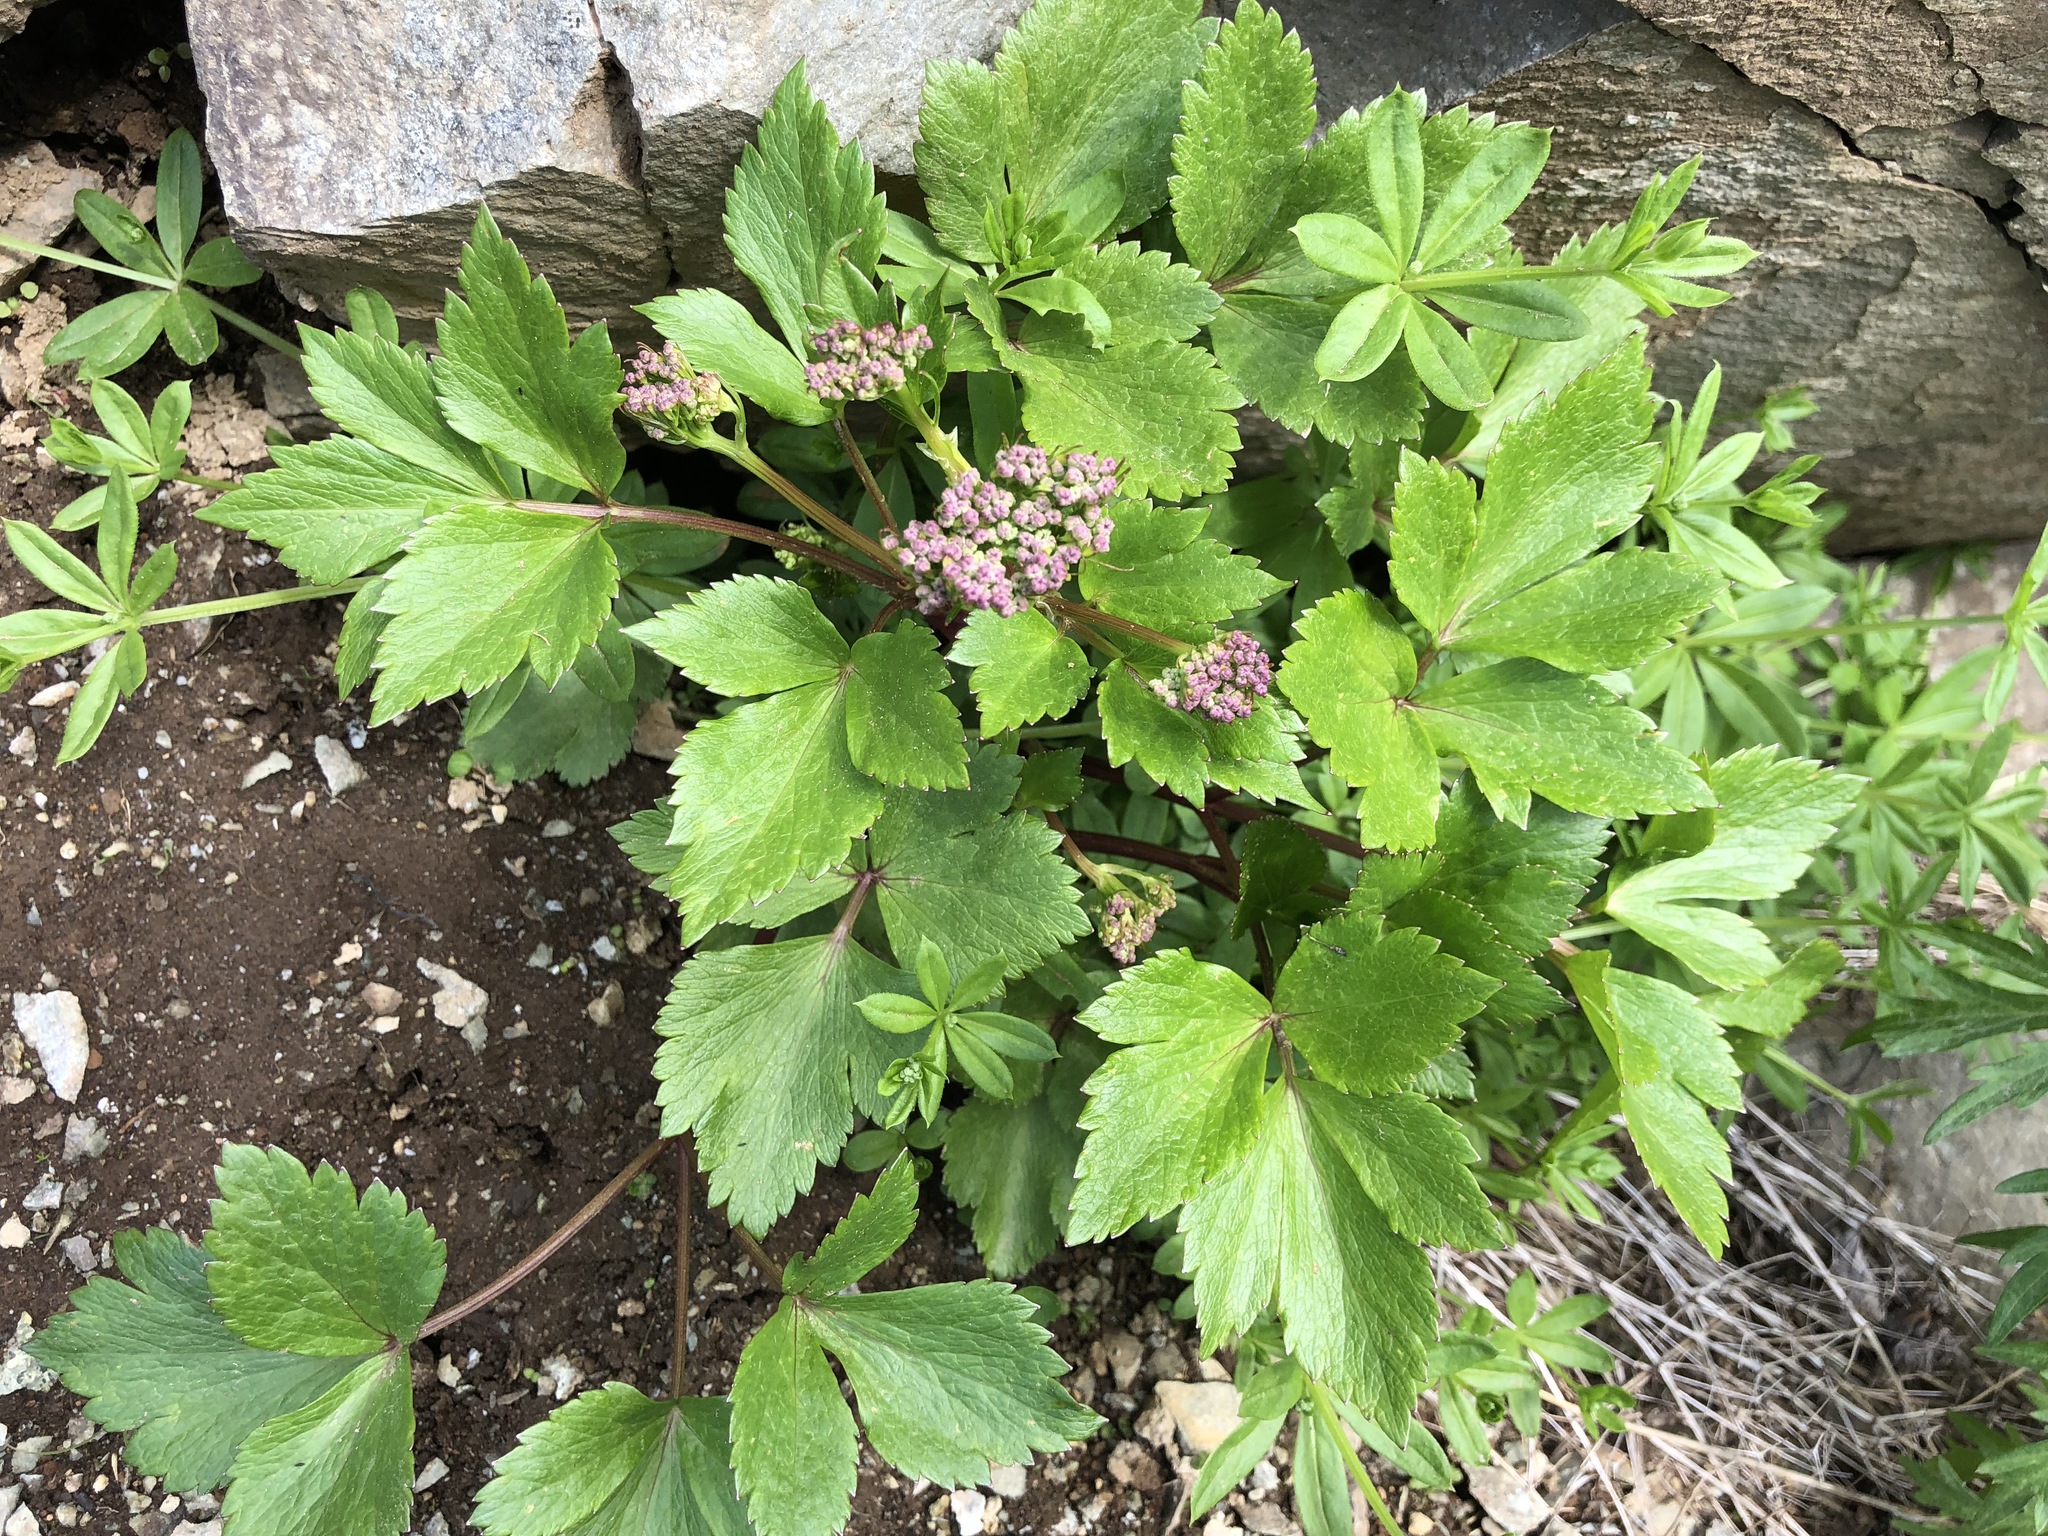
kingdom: Plantae
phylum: Tracheophyta
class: Magnoliopsida
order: Apiales
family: Apiaceae
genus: Ligusticum
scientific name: Ligusticum scothicum
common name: Beach lovage
